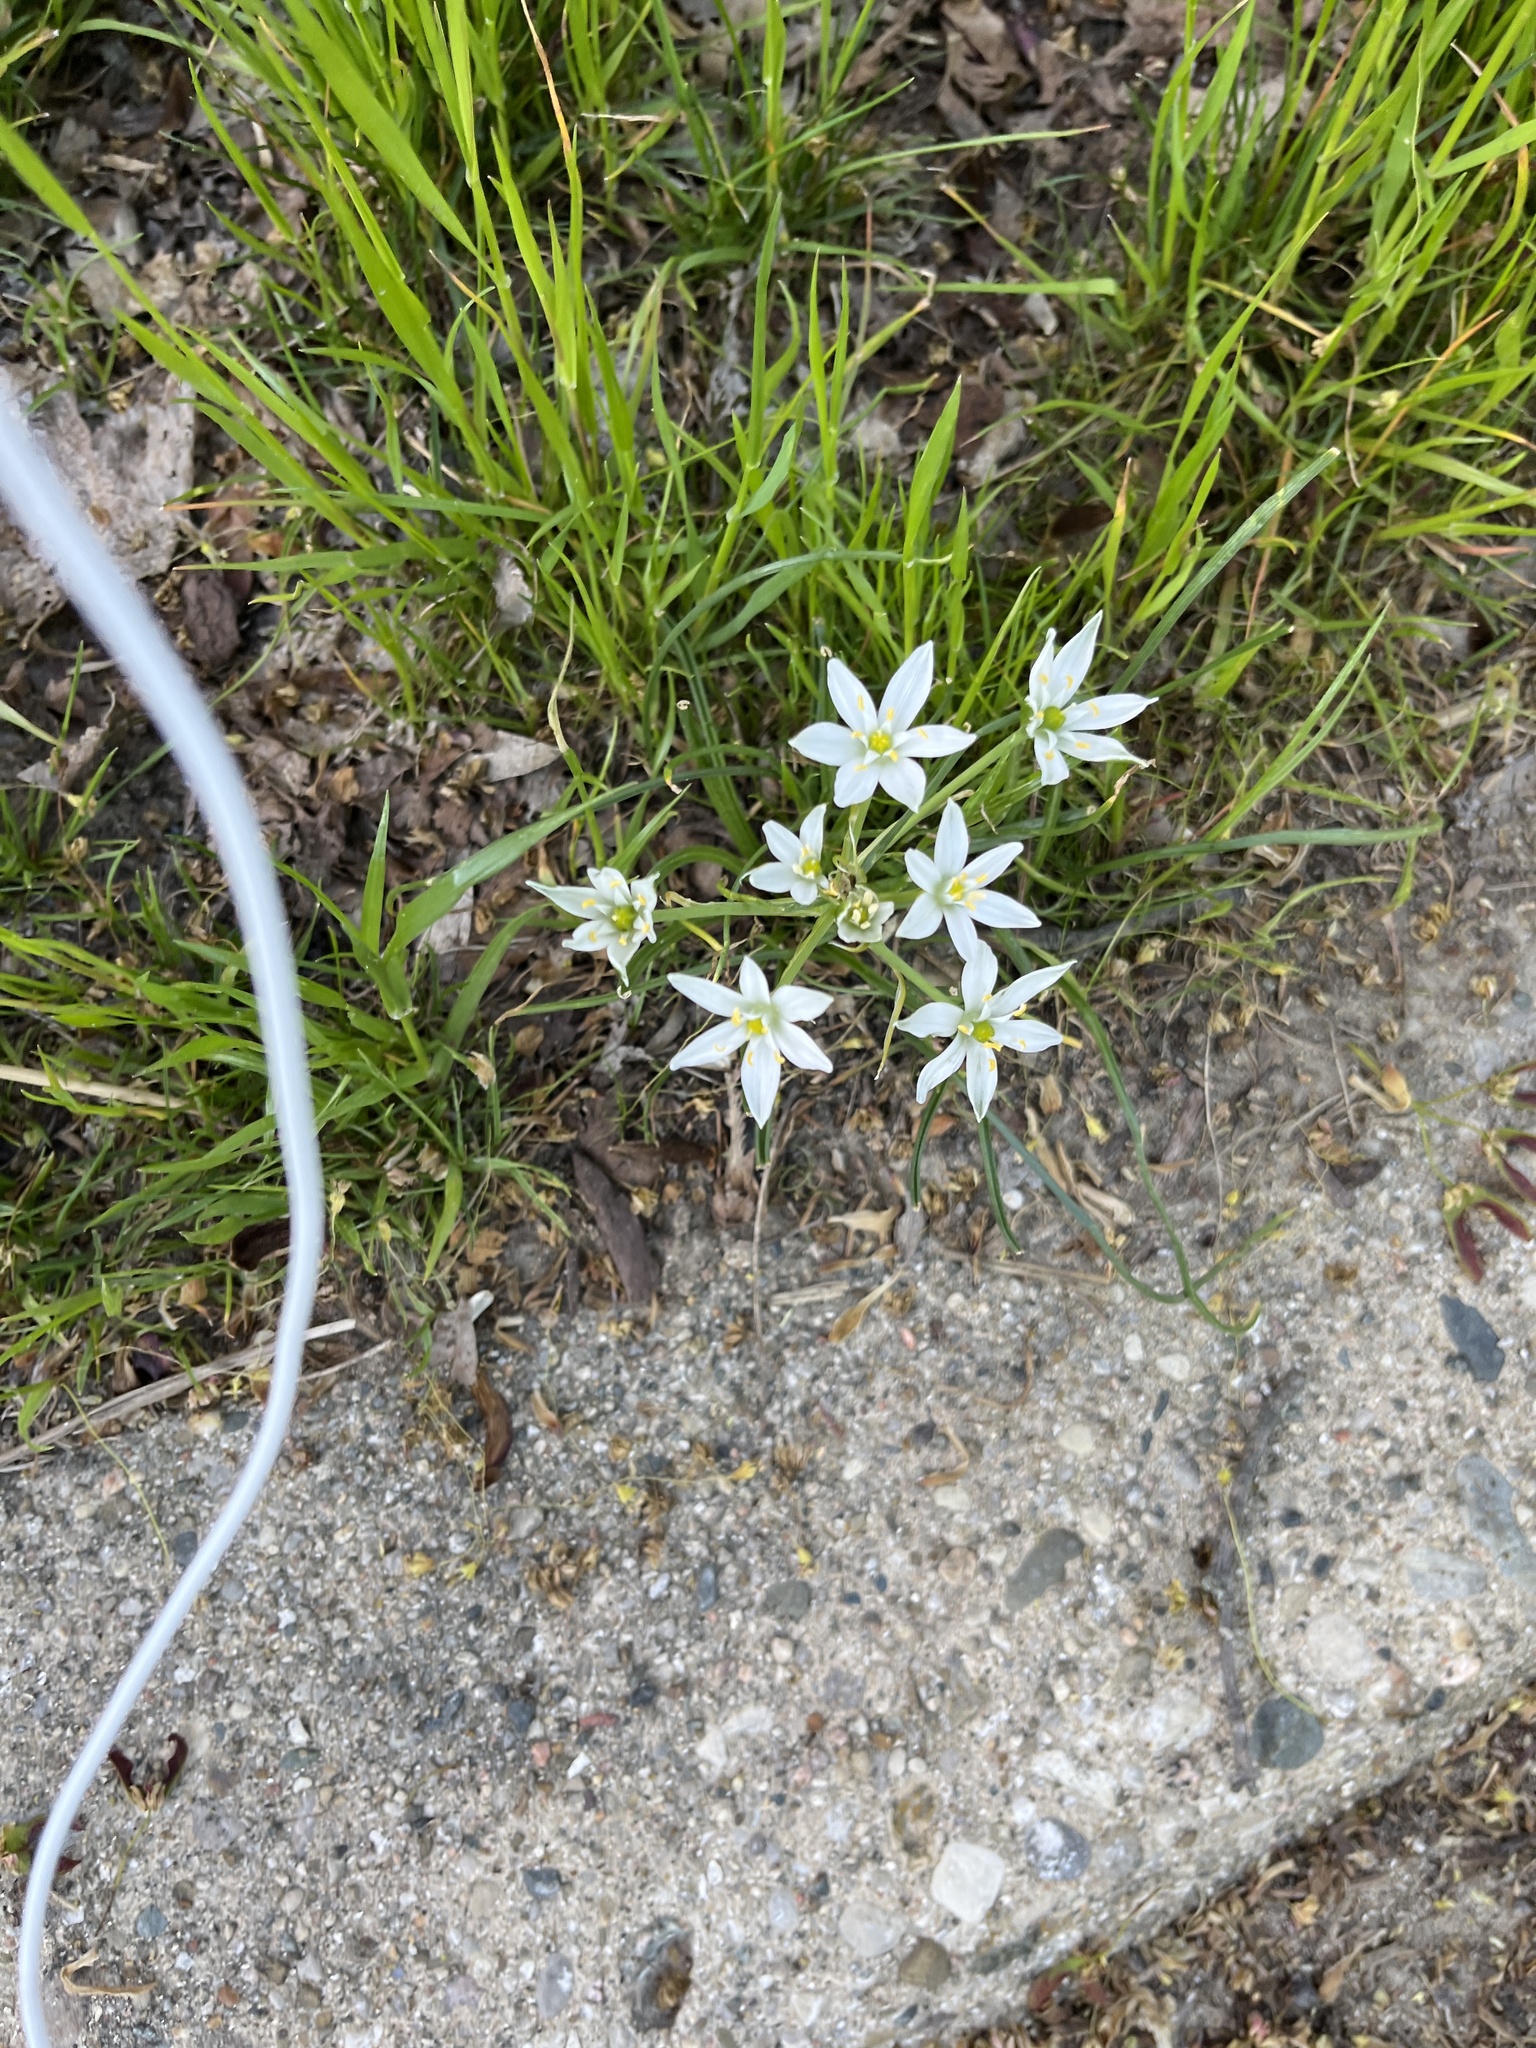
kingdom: Plantae
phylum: Tracheophyta
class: Liliopsida
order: Asparagales
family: Asparagaceae
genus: Ornithogalum
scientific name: Ornithogalum umbellatum
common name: Garden star-of-bethlehem
